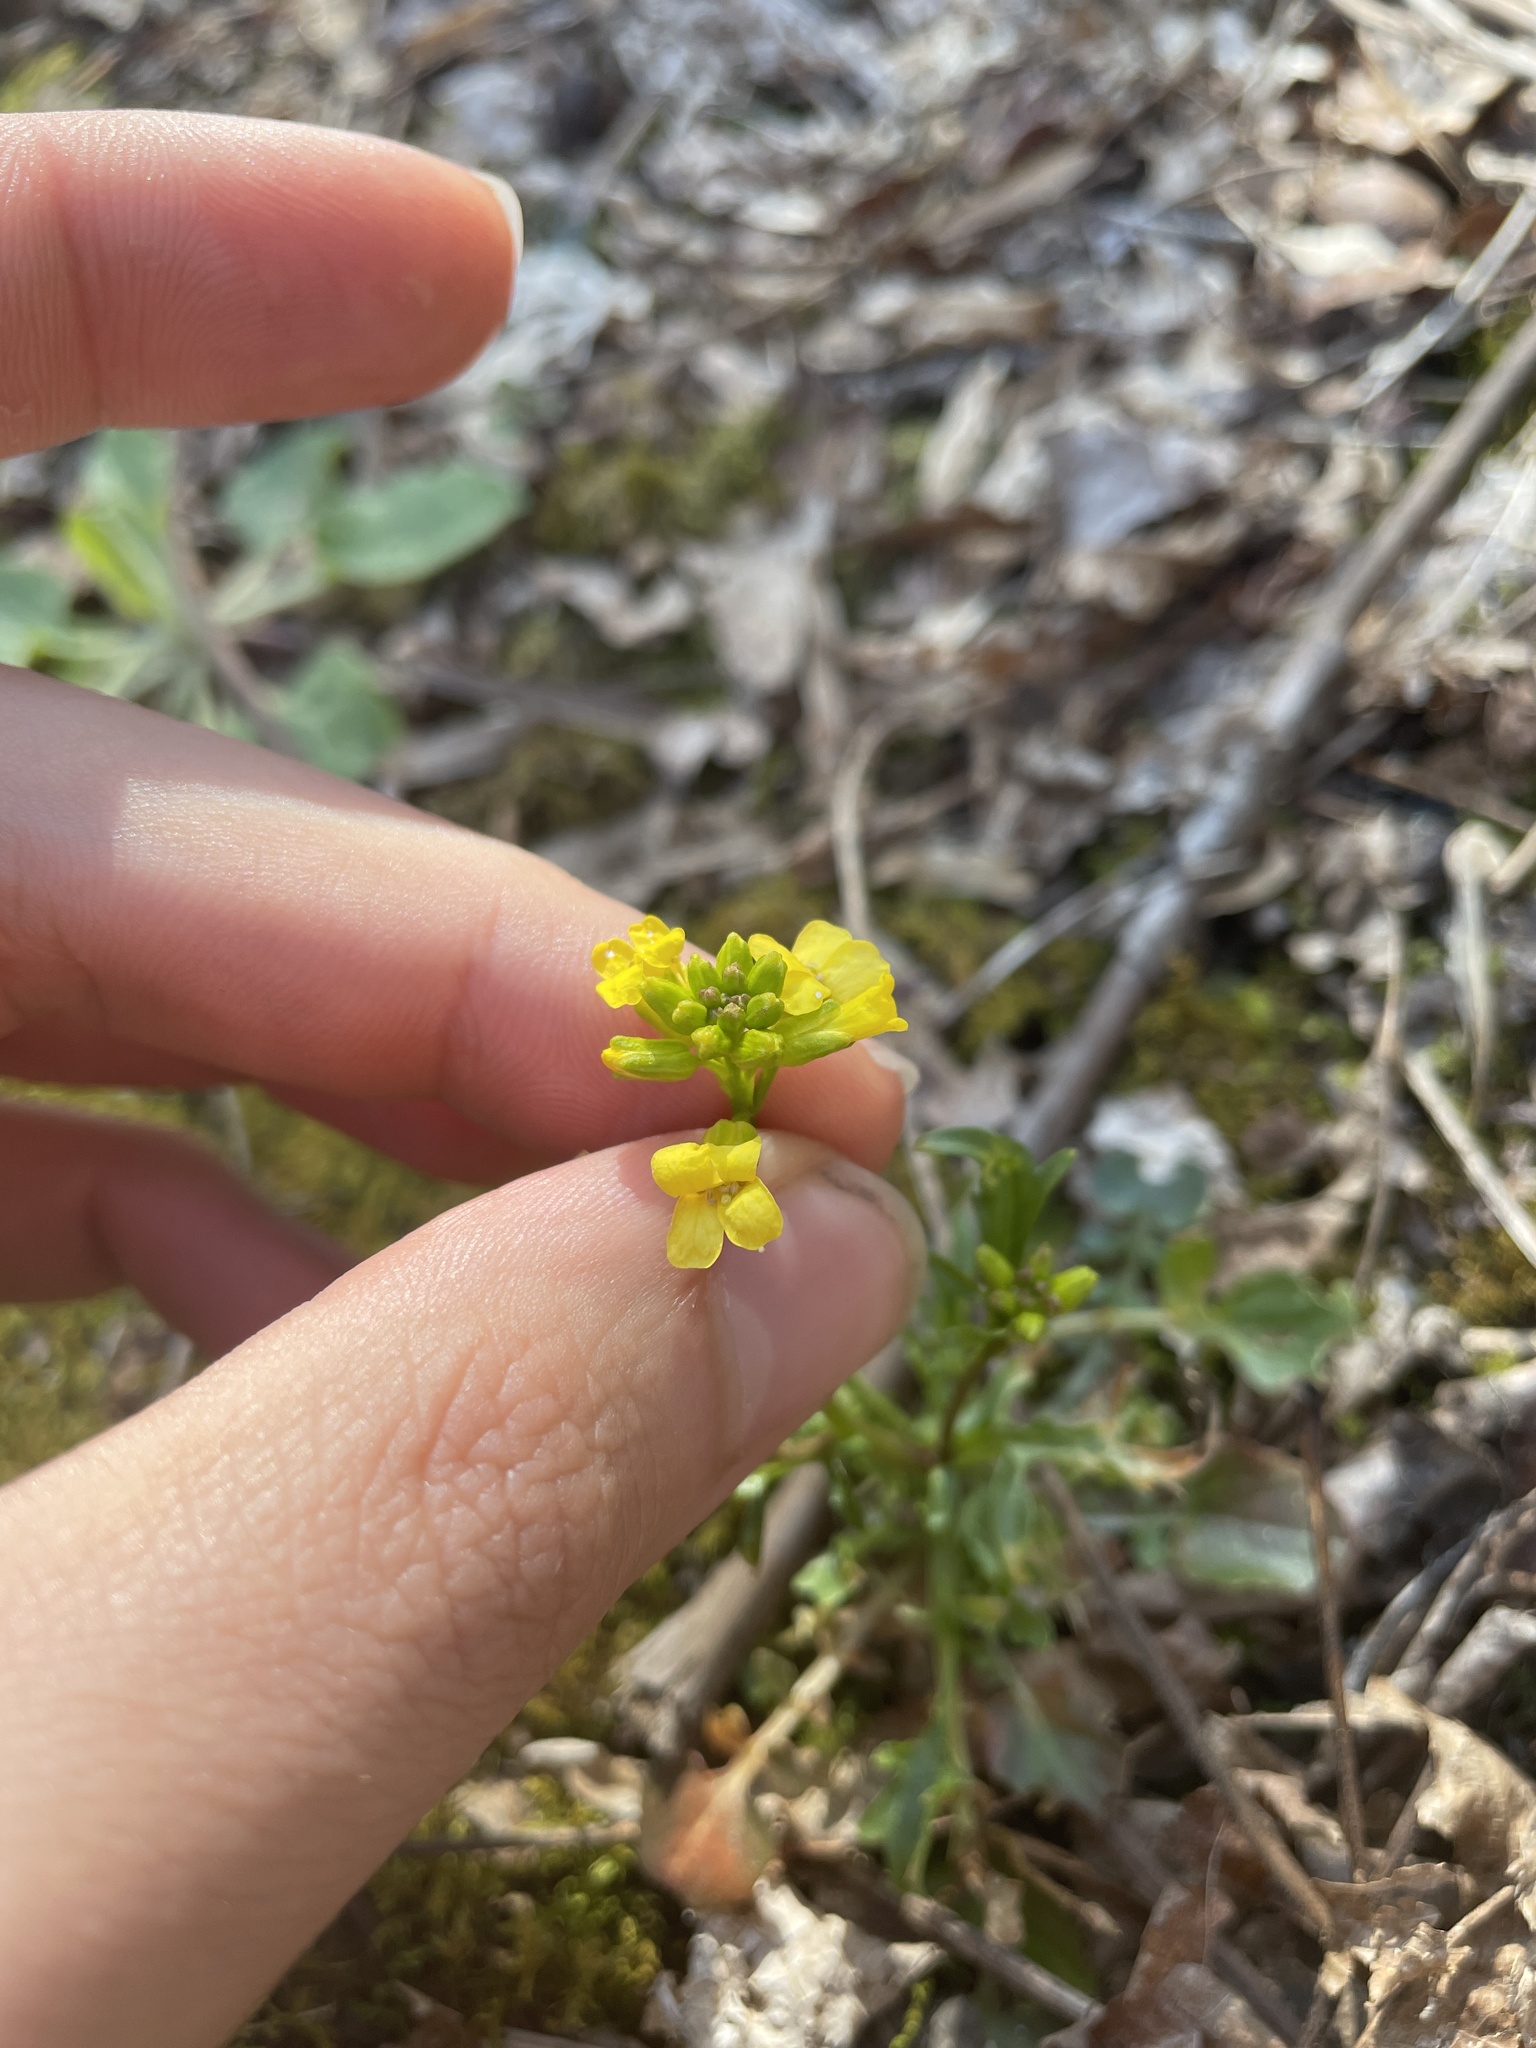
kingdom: Plantae
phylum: Tracheophyta
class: Magnoliopsida
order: Brassicales
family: Brassicaceae
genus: Barbarea
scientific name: Barbarea vulgaris
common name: Cressy-greens
